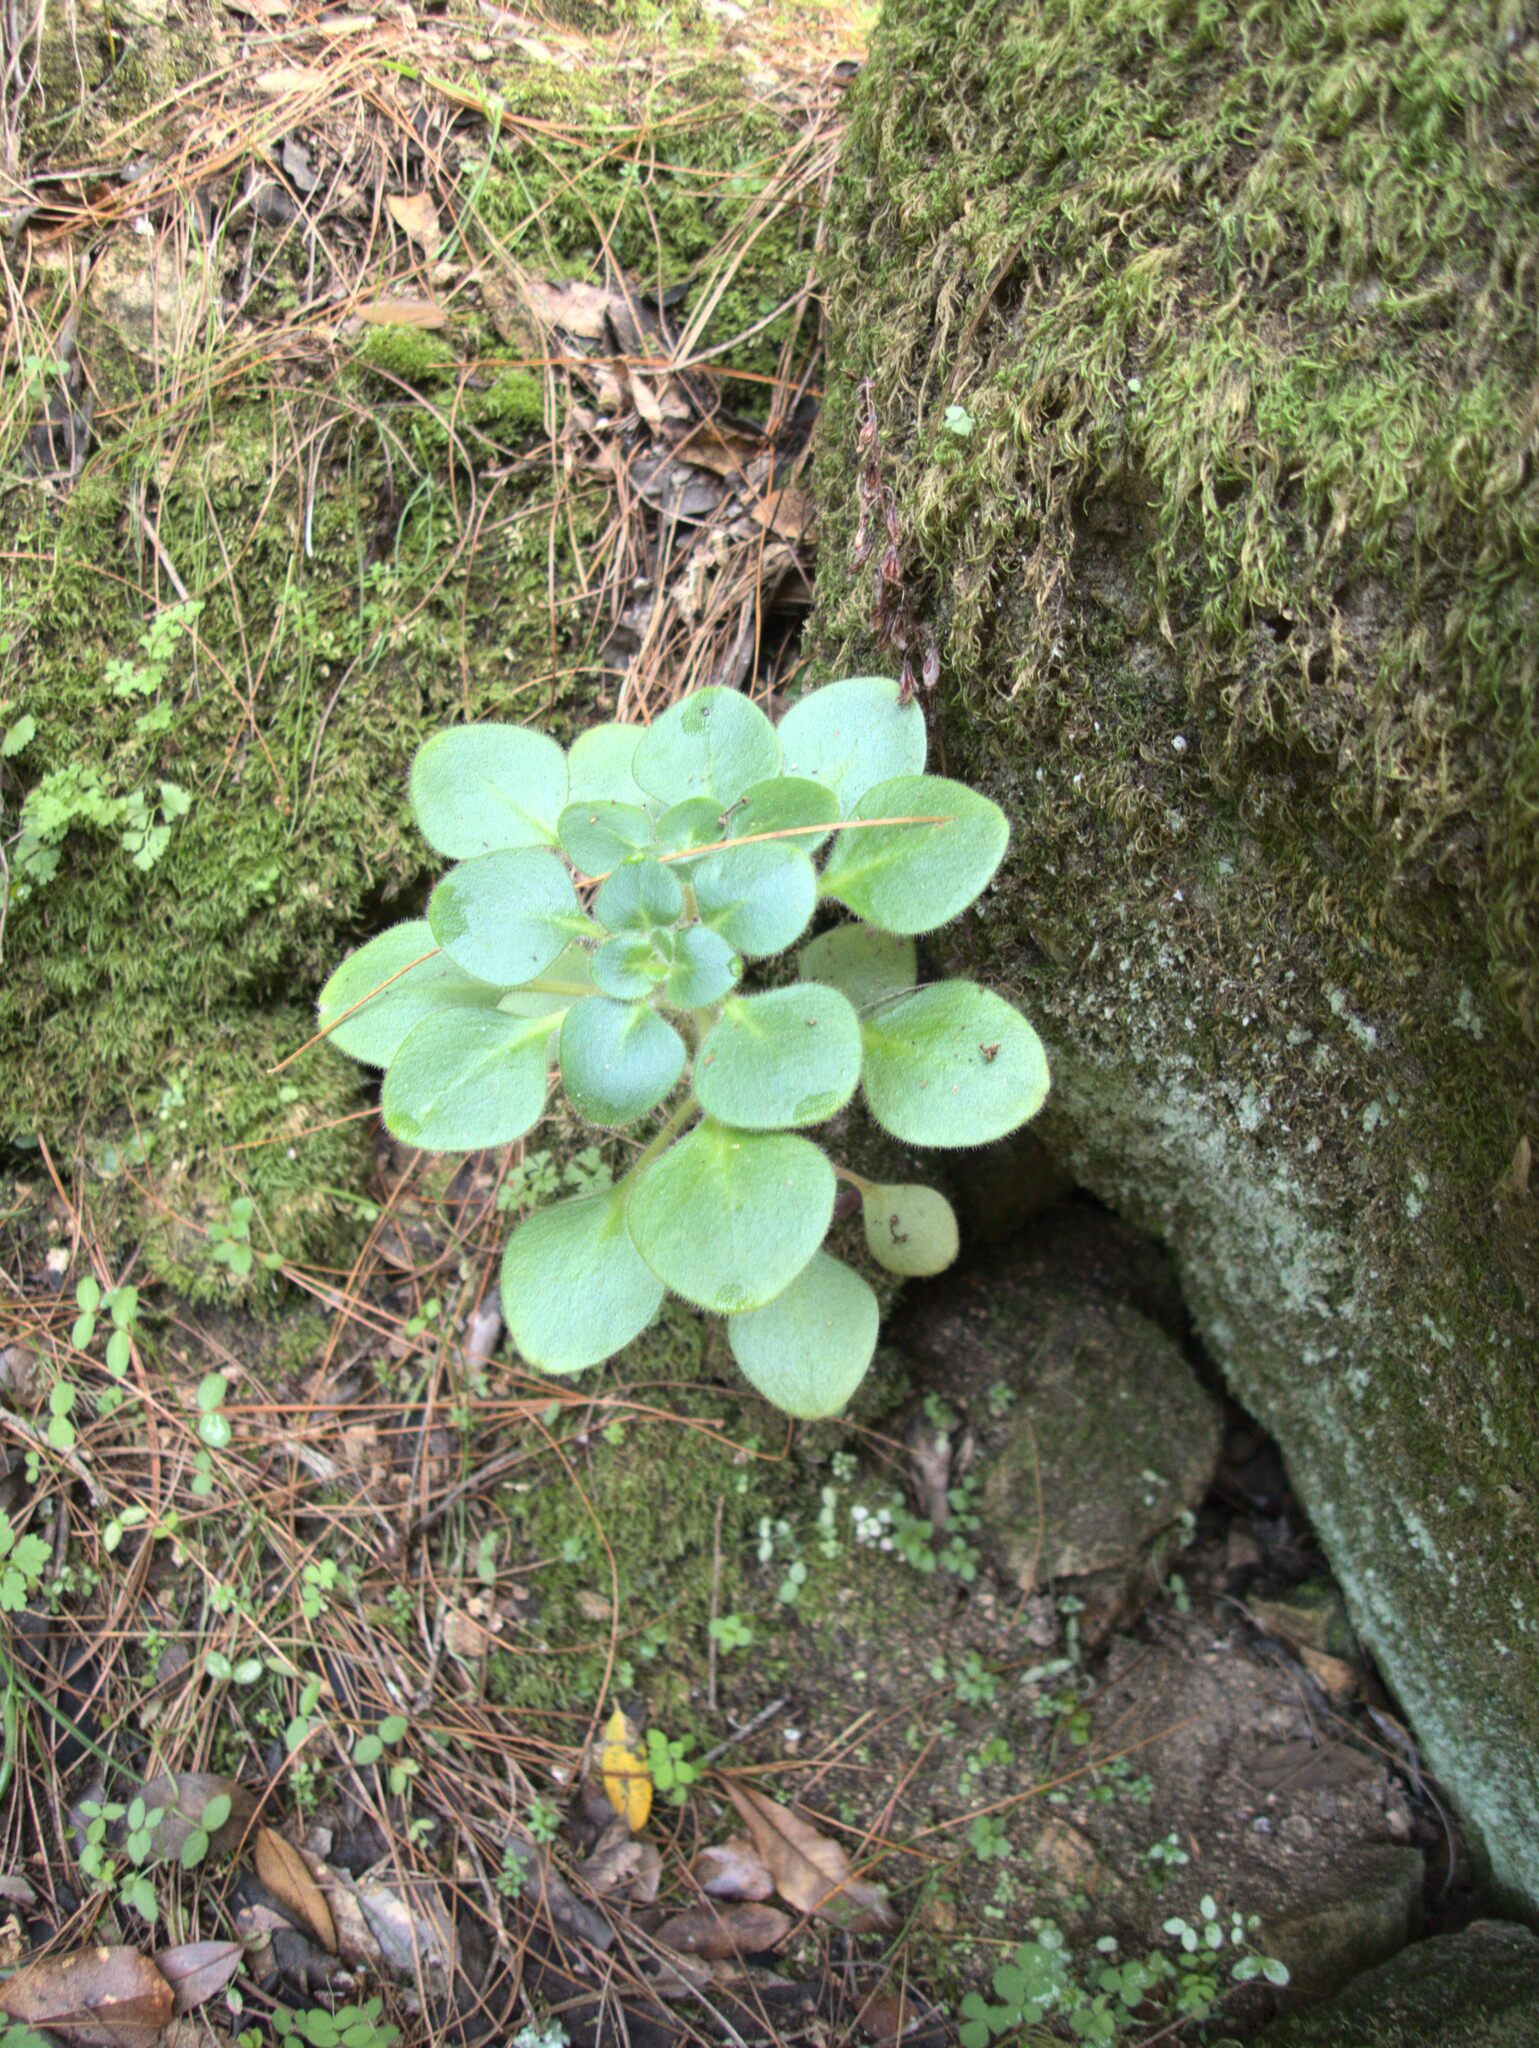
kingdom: Plantae
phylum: Tracheophyta
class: Magnoliopsida
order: Saxifragales
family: Crassulaceae
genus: Aichryson
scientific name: Aichryson laxum
